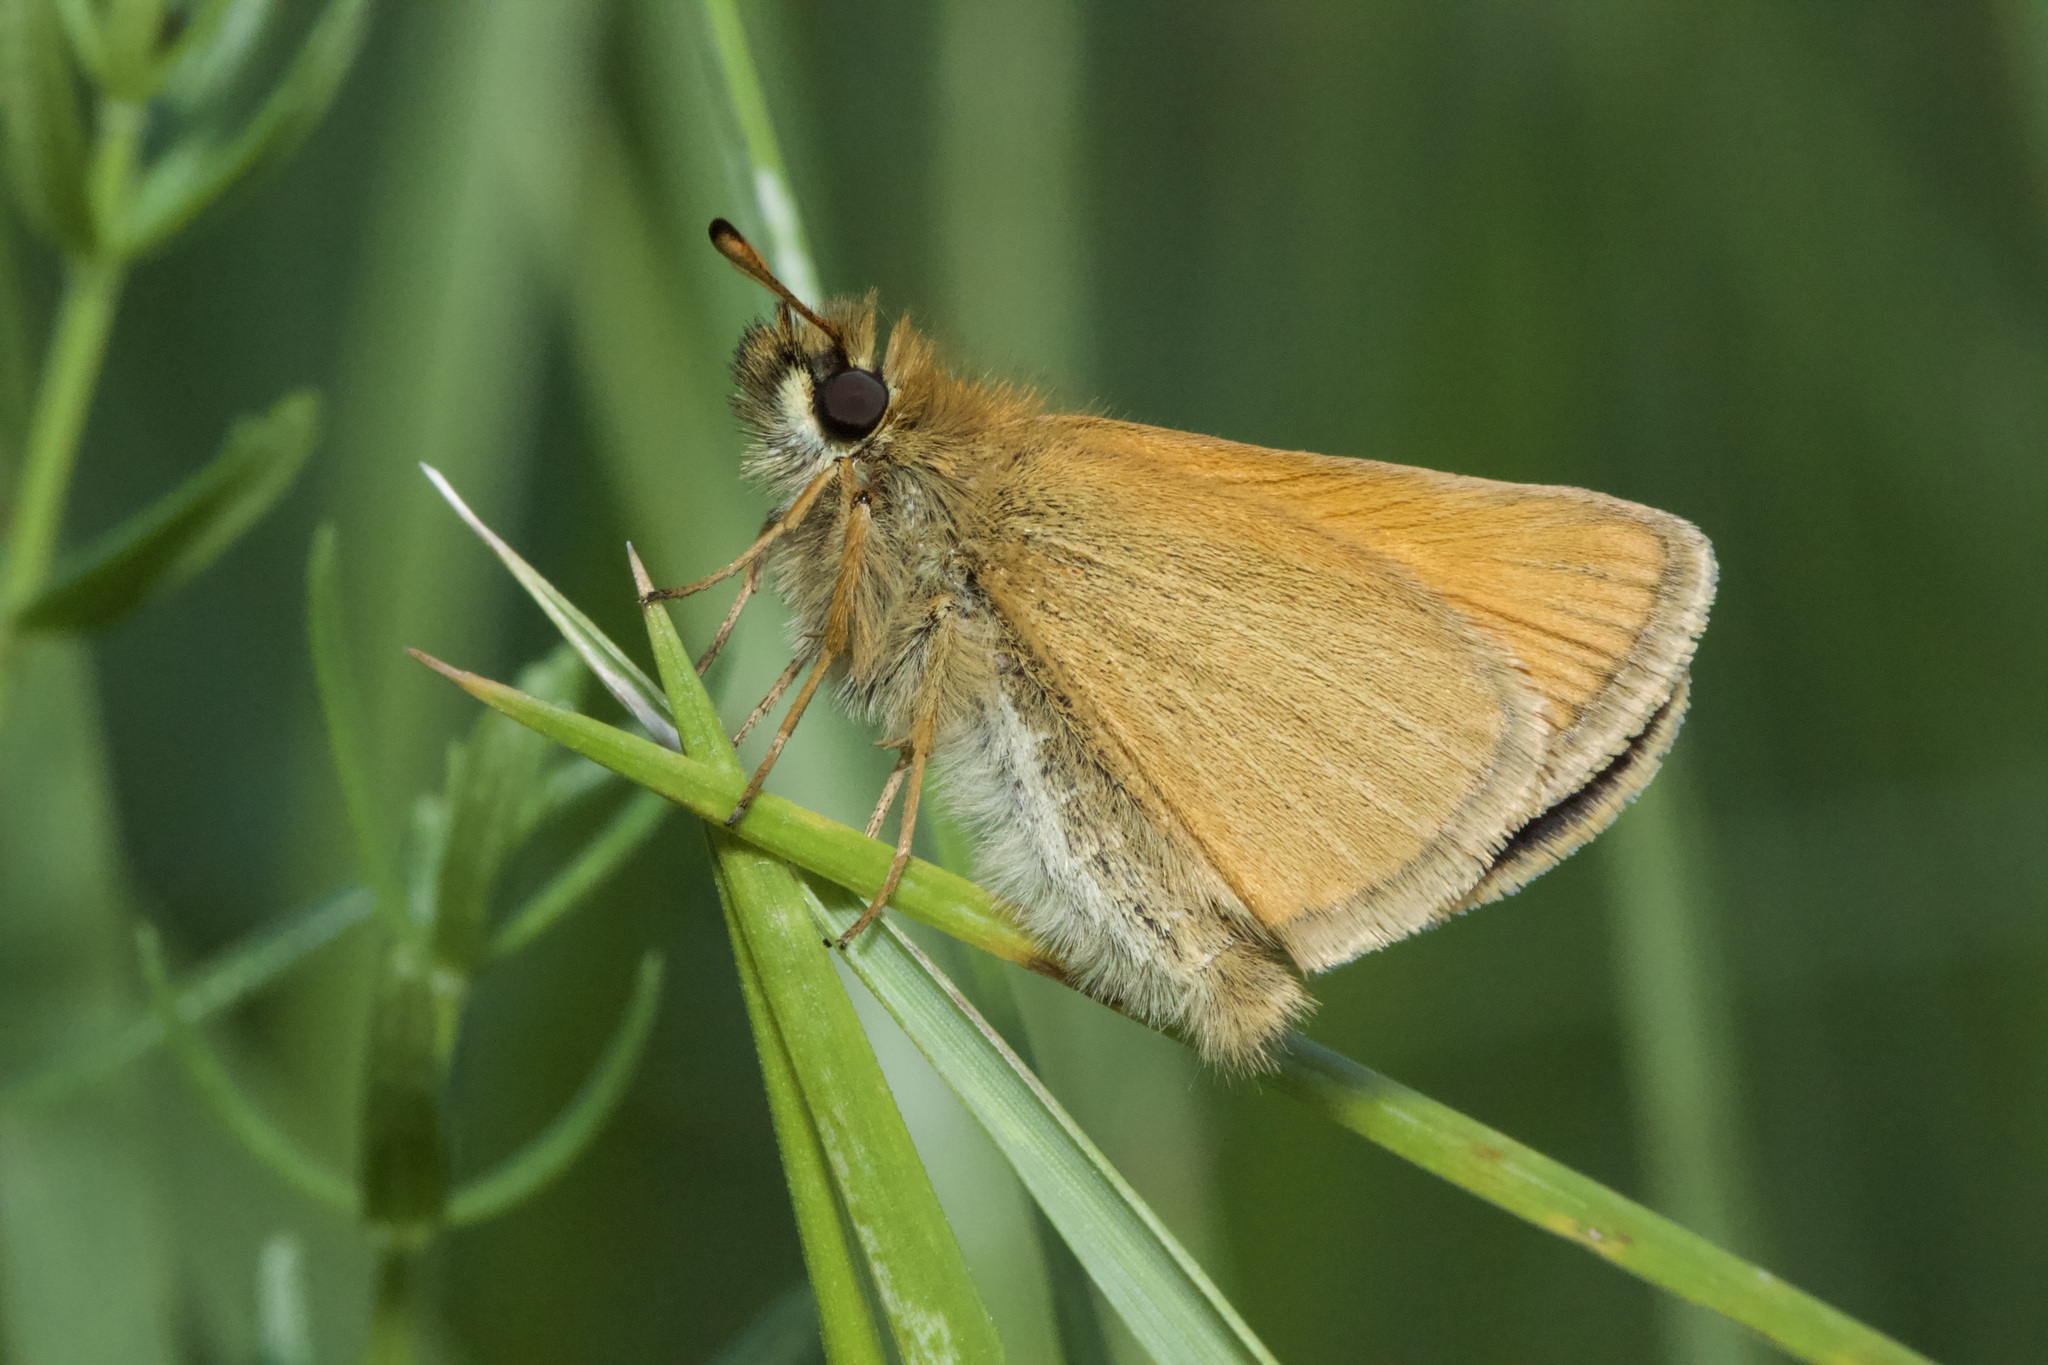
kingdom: Animalia
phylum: Arthropoda
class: Insecta
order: Lepidoptera
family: Hesperiidae
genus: Thymelicus
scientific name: Thymelicus lineola
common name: Essex skipper
